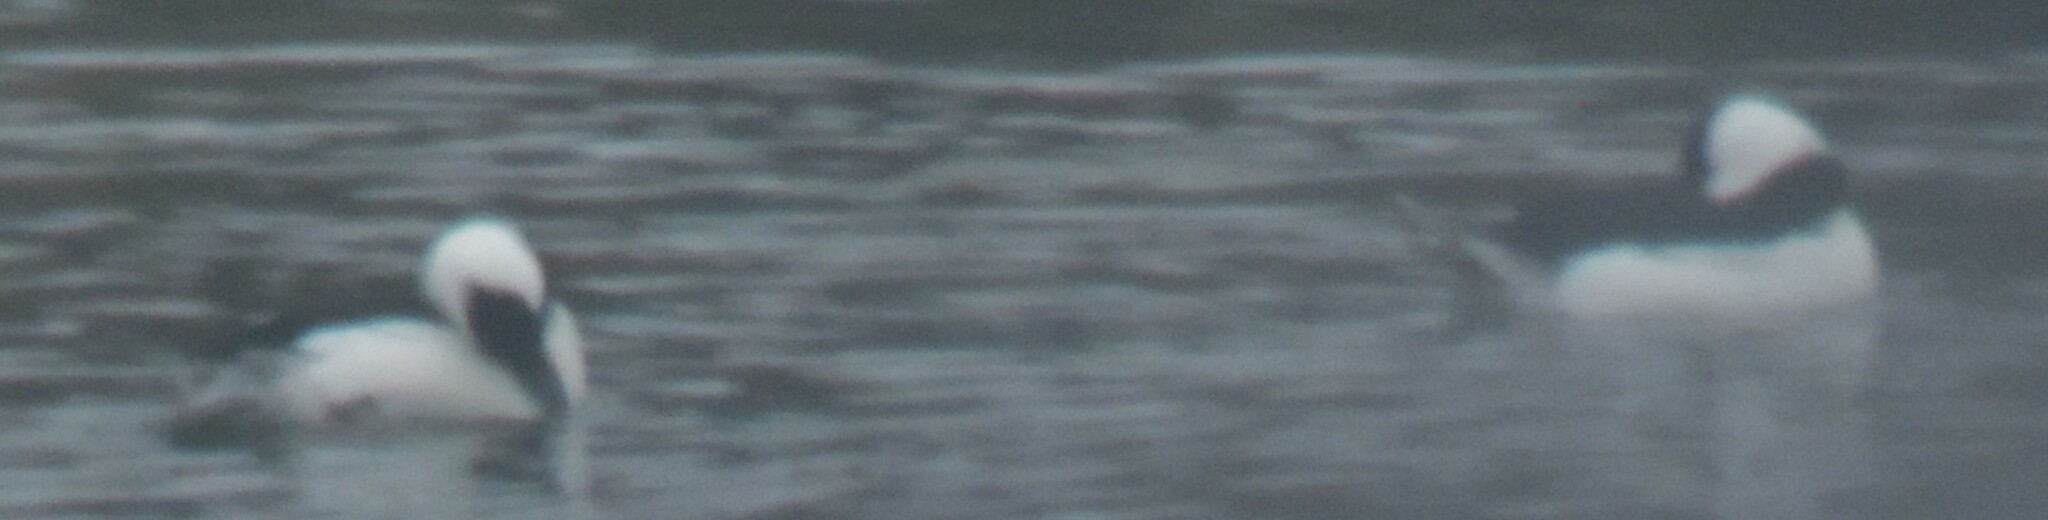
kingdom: Animalia
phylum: Chordata
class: Aves
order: Anseriformes
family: Anatidae
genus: Bucephala
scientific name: Bucephala albeola
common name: Bufflehead
